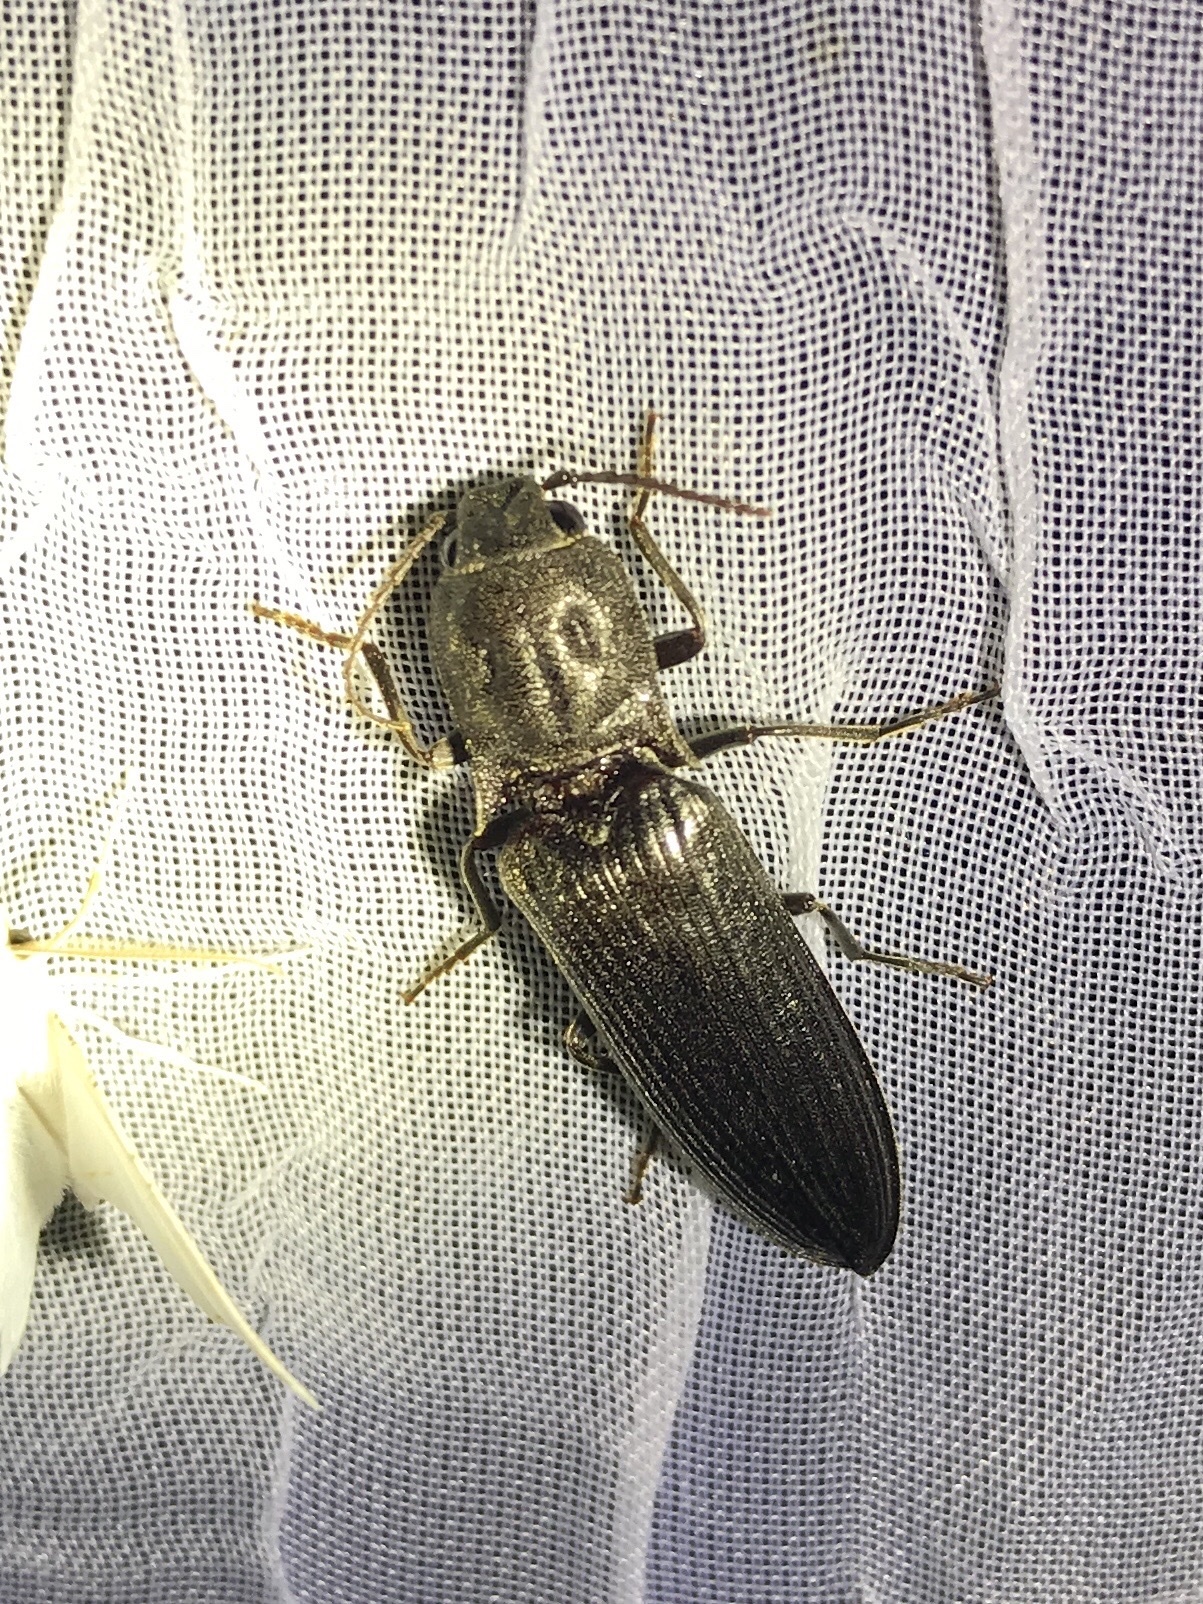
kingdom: Animalia
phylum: Arthropoda
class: Insecta
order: Coleoptera
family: Elateridae
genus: Pityobius
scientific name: Pityobius anguinus
